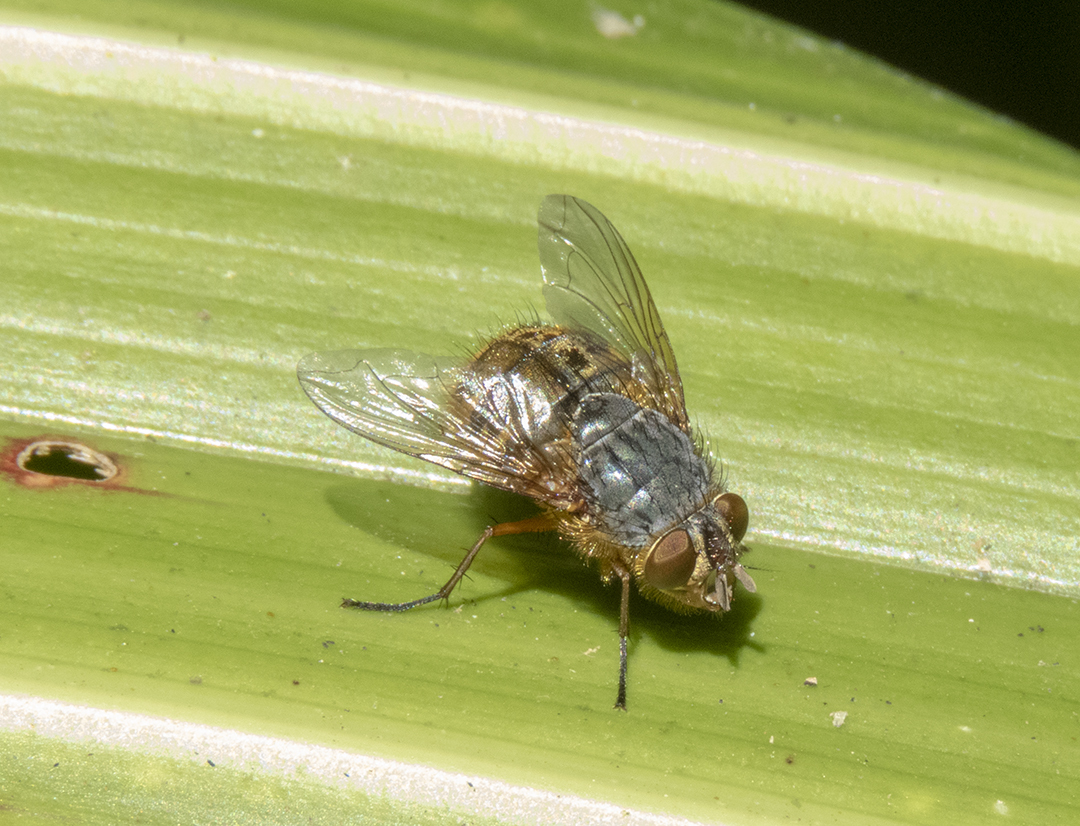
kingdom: Animalia
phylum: Arthropoda
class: Insecta
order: Diptera
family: Calliphoridae
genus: Calliphora
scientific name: Calliphora hilli
